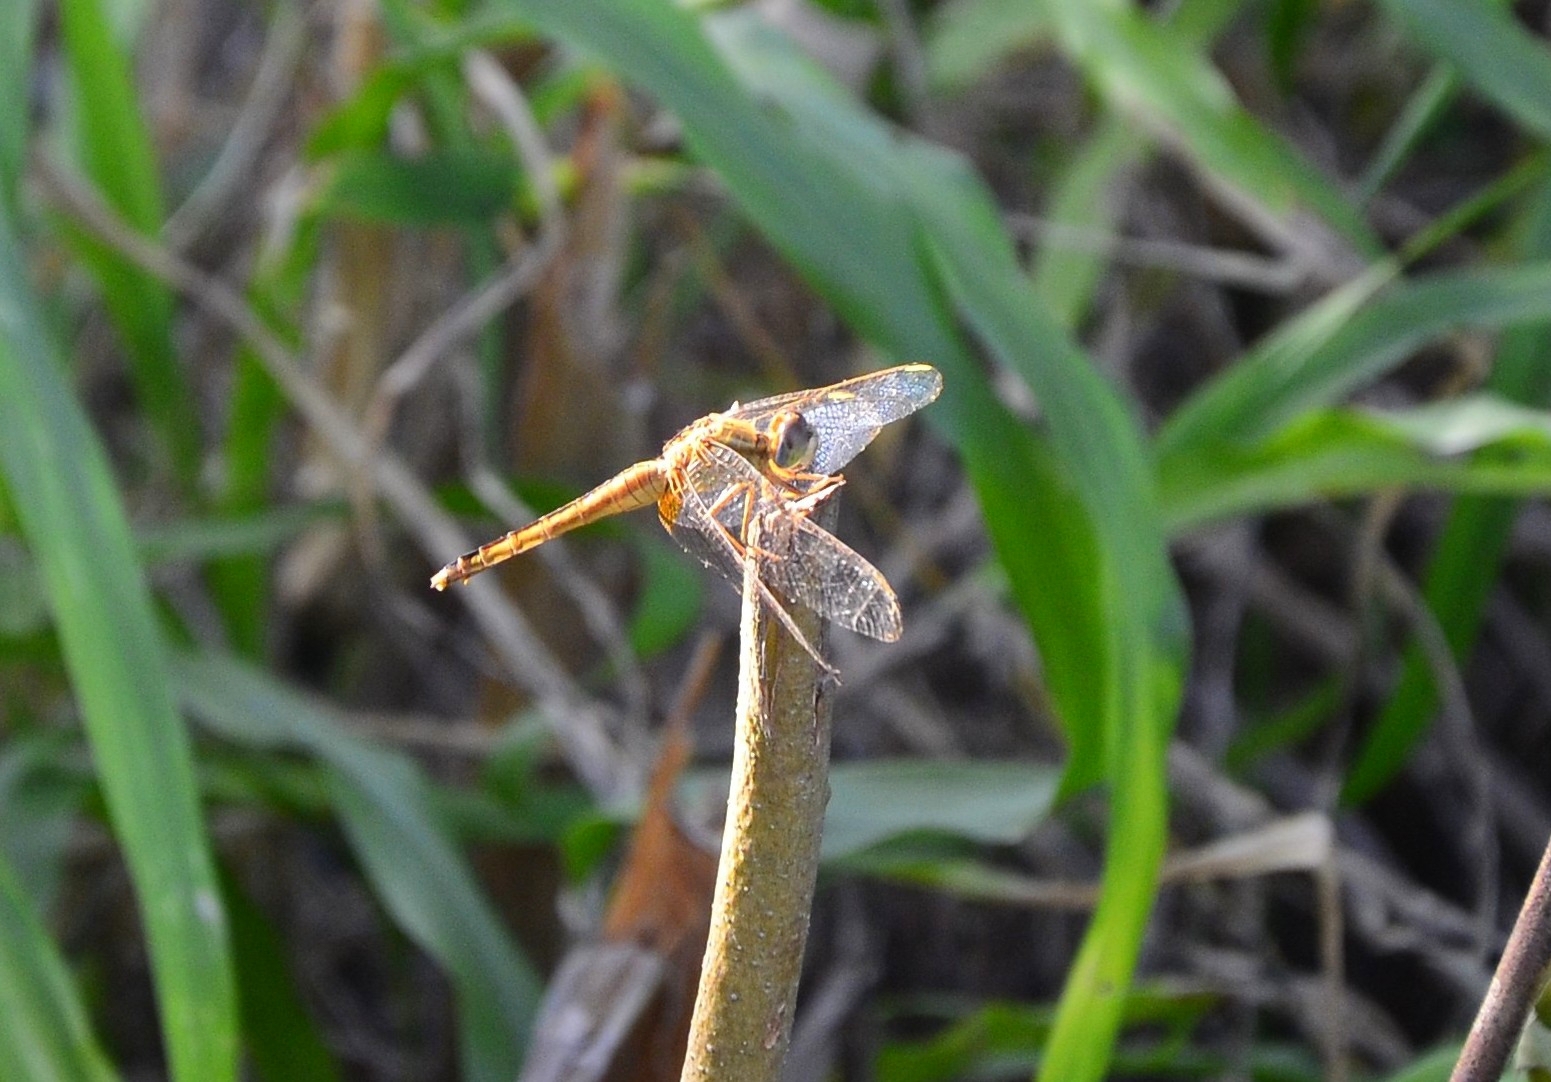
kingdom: Animalia
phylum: Arthropoda
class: Insecta
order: Odonata
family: Libellulidae
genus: Crocothemis
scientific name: Crocothemis servilia
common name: Scarlet skimmer
